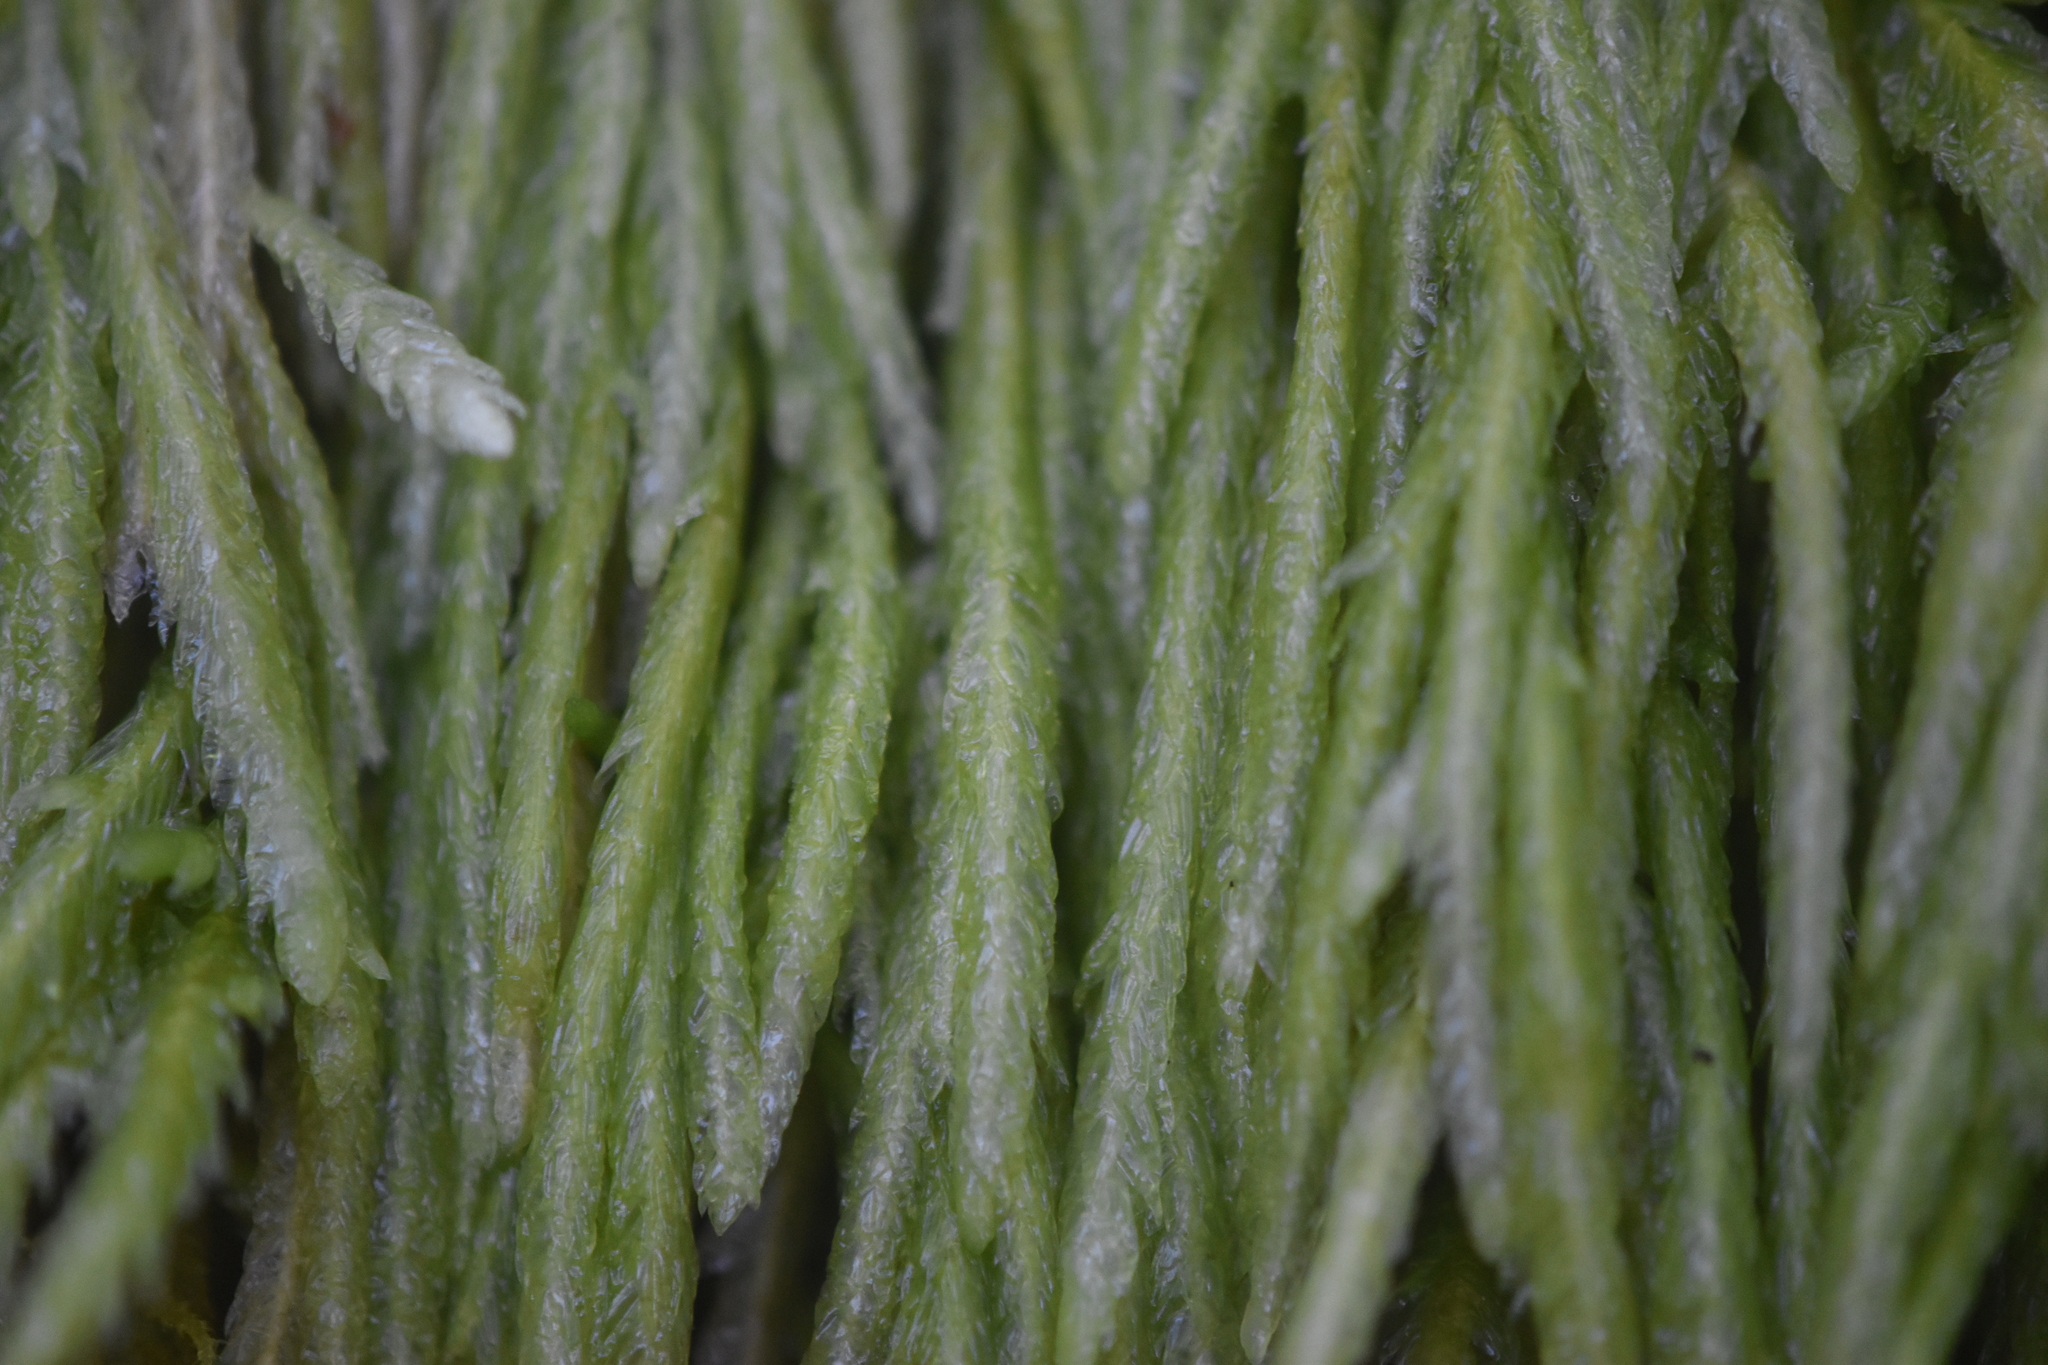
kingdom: Plantae
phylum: Bryophyta
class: Bryopsida
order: Hypnales
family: Plagiotheciaceae
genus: Plagiothecium
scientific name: Plagiothecium undulatum
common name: Waved silk-moss
